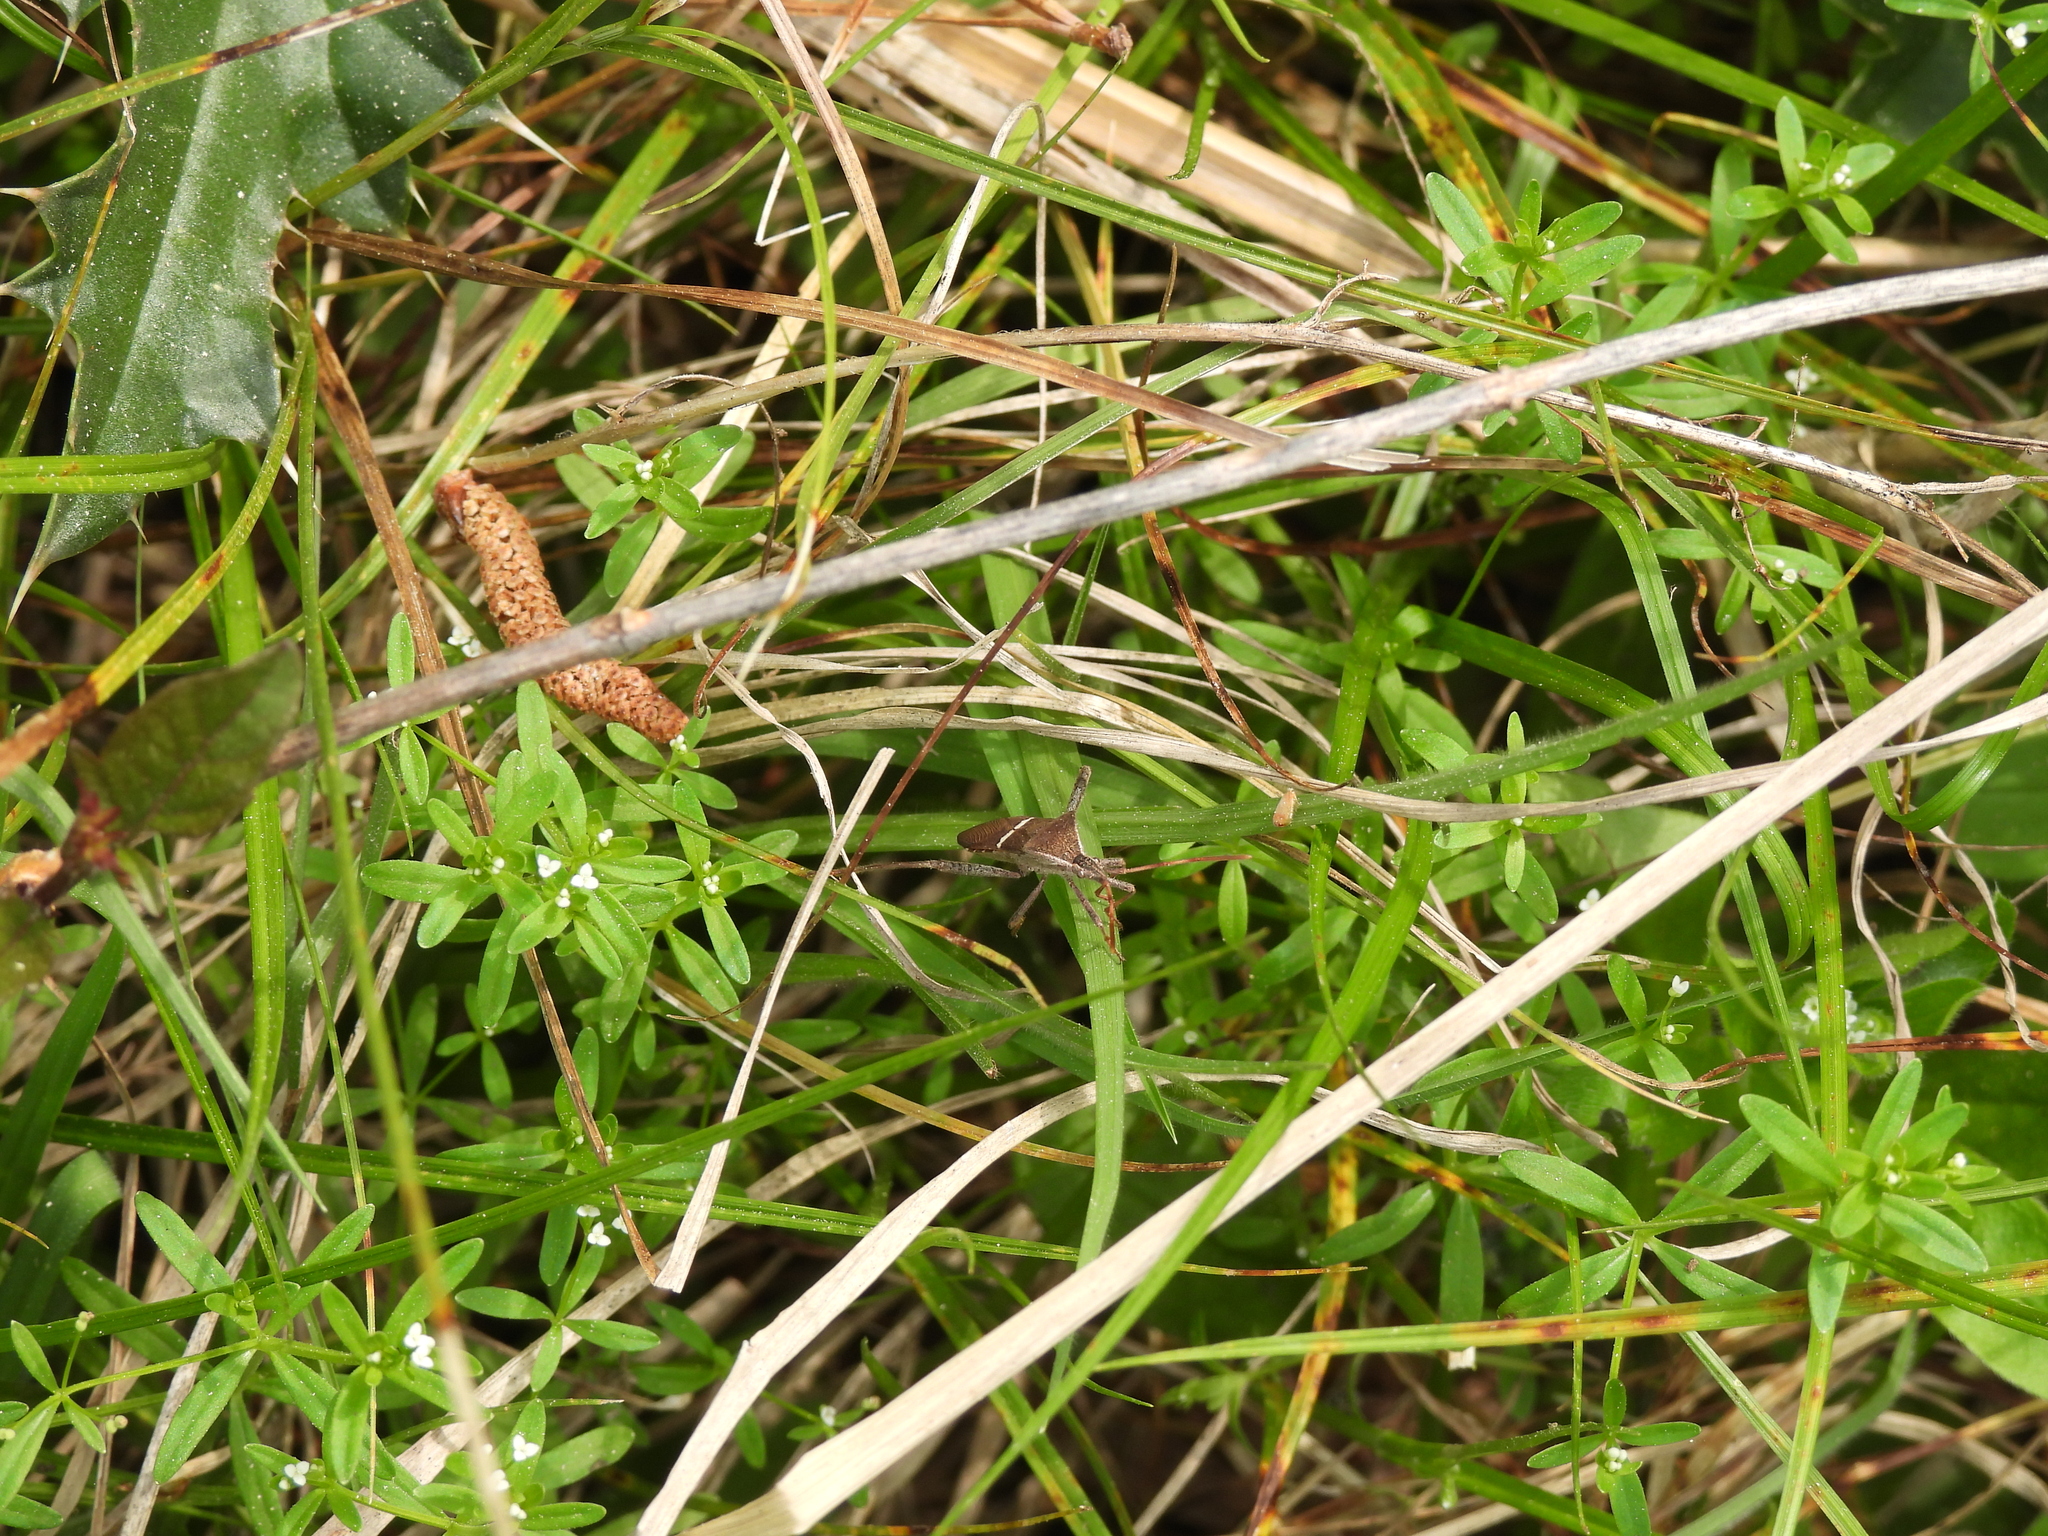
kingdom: Animalia
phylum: Arthropoda
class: Insecta
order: Hemiptera
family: Coreidae
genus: Leptoglossus
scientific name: Leptoglossus phyllopus
